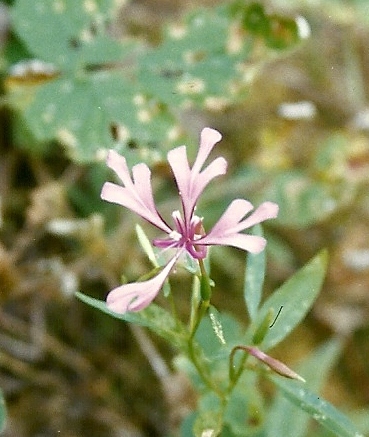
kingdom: Plantae
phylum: Tracheophyta
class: Magnoliopsida
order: Myrtales
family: Onagraceae
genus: Clarkia
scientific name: Clarkia concinna
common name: Red-ribbons
